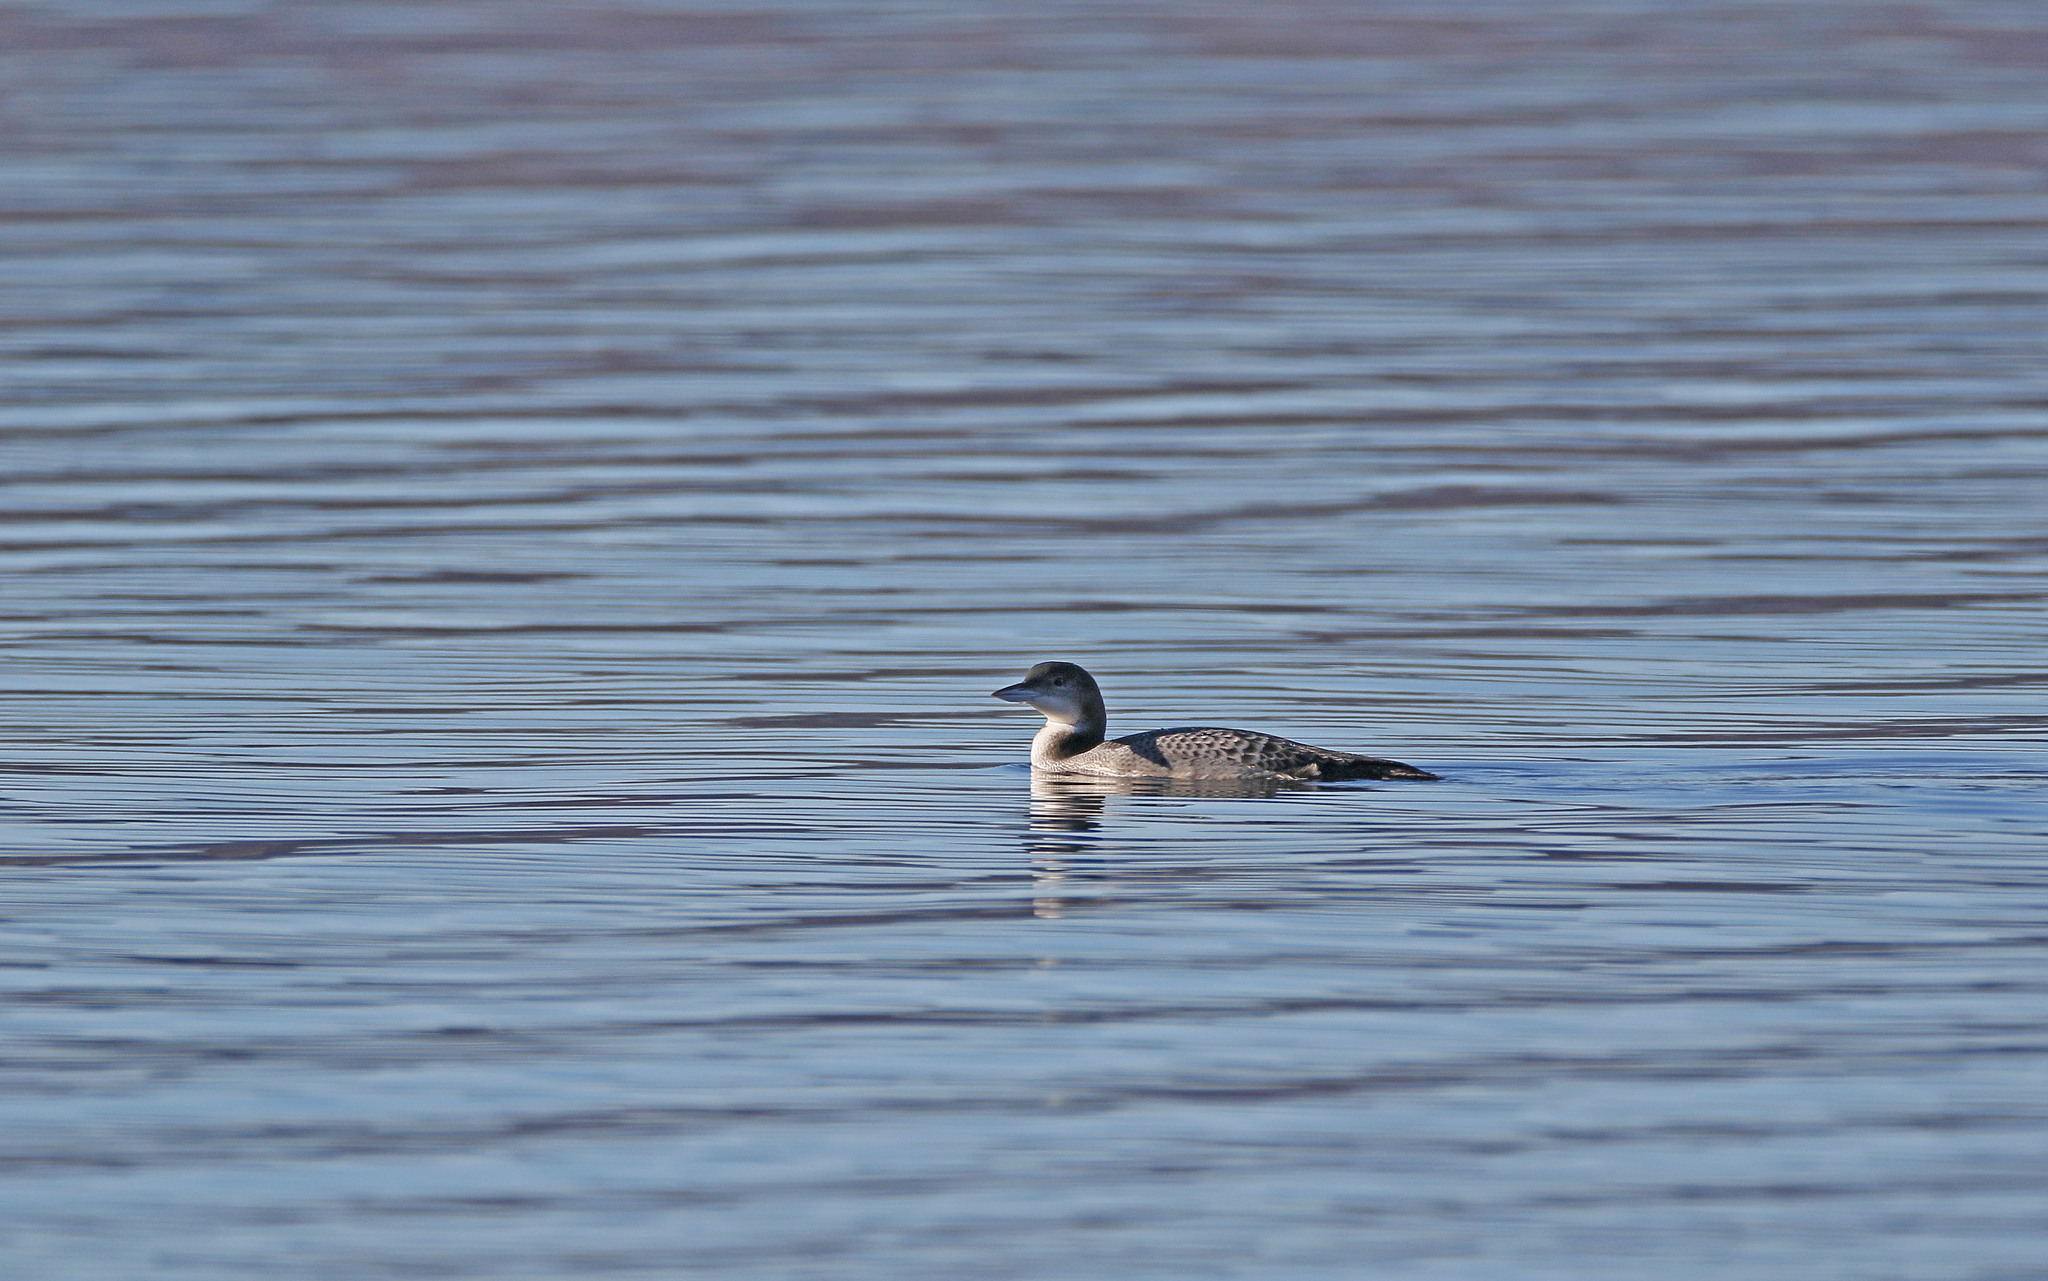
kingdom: Animalia
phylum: Chordata
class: Aves
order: Gaviiformes
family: Gaviidae
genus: Gavia
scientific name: Gavia immer
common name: Common loon
